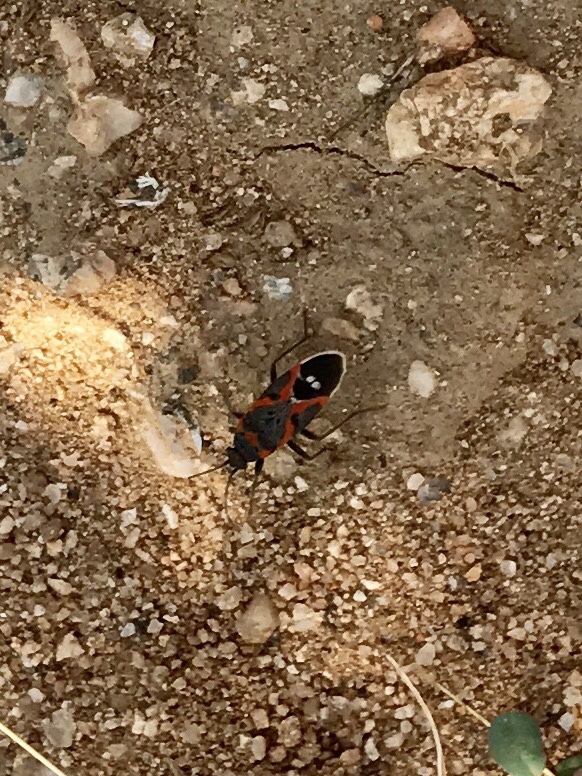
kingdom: Animalia
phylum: Arthropoda
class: Insecta
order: Hemiptera
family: Lygaeidae
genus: Lygaeus
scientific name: Lygaeus kalmii
